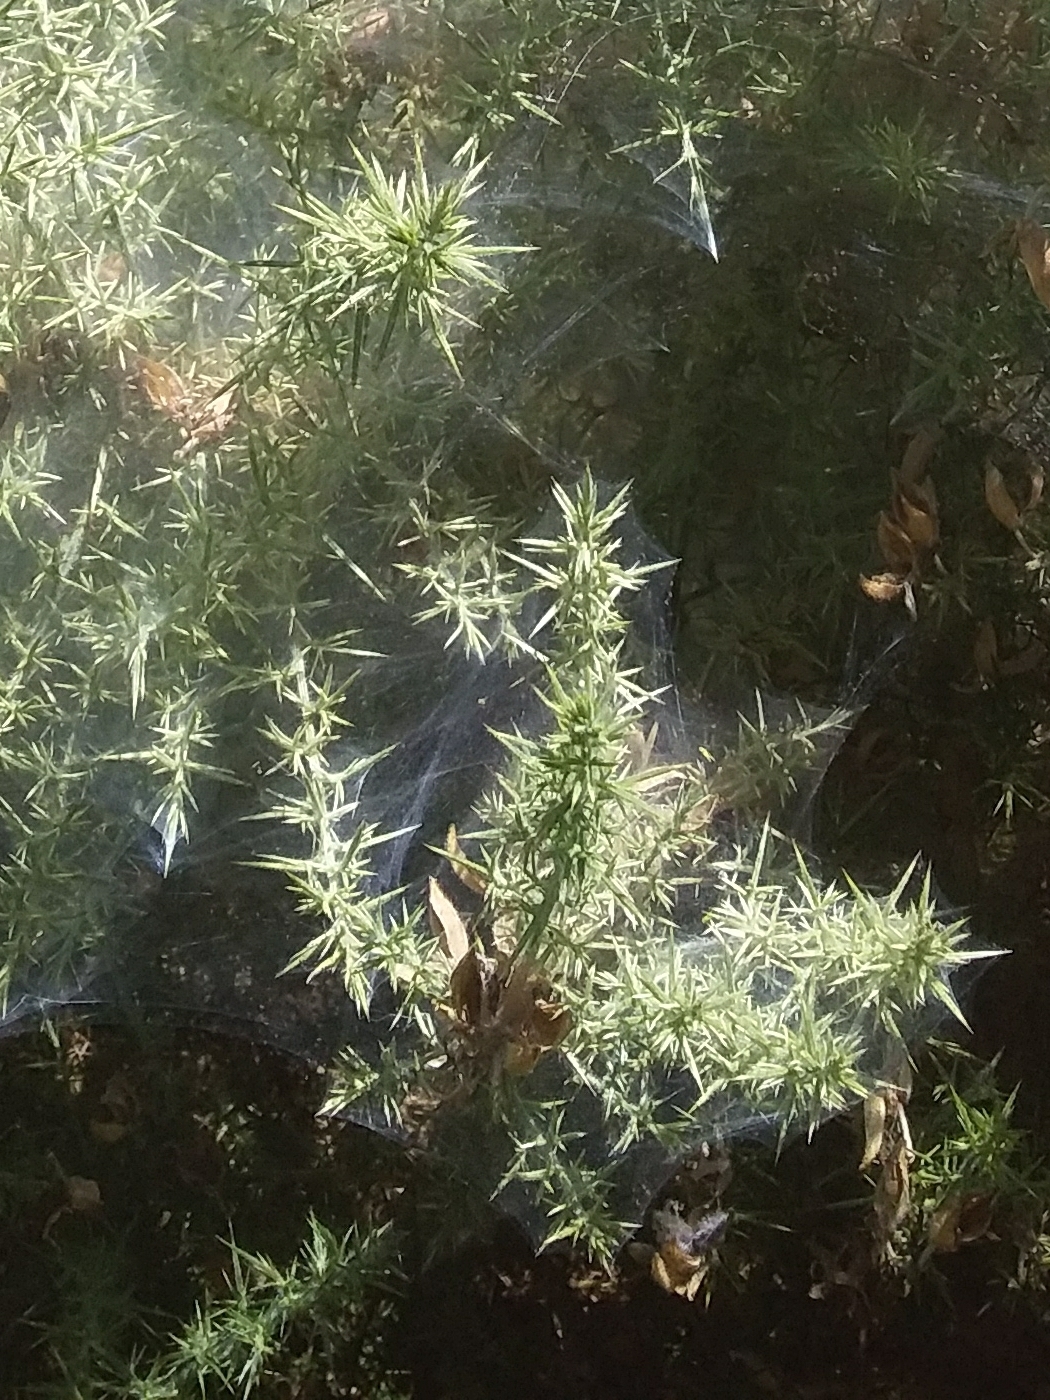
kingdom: Plantae
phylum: Tracheophyta
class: Magnoliopsida
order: Fabales
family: Fabaceae
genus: Ulex
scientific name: Ulex europaeus
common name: Common gorse
